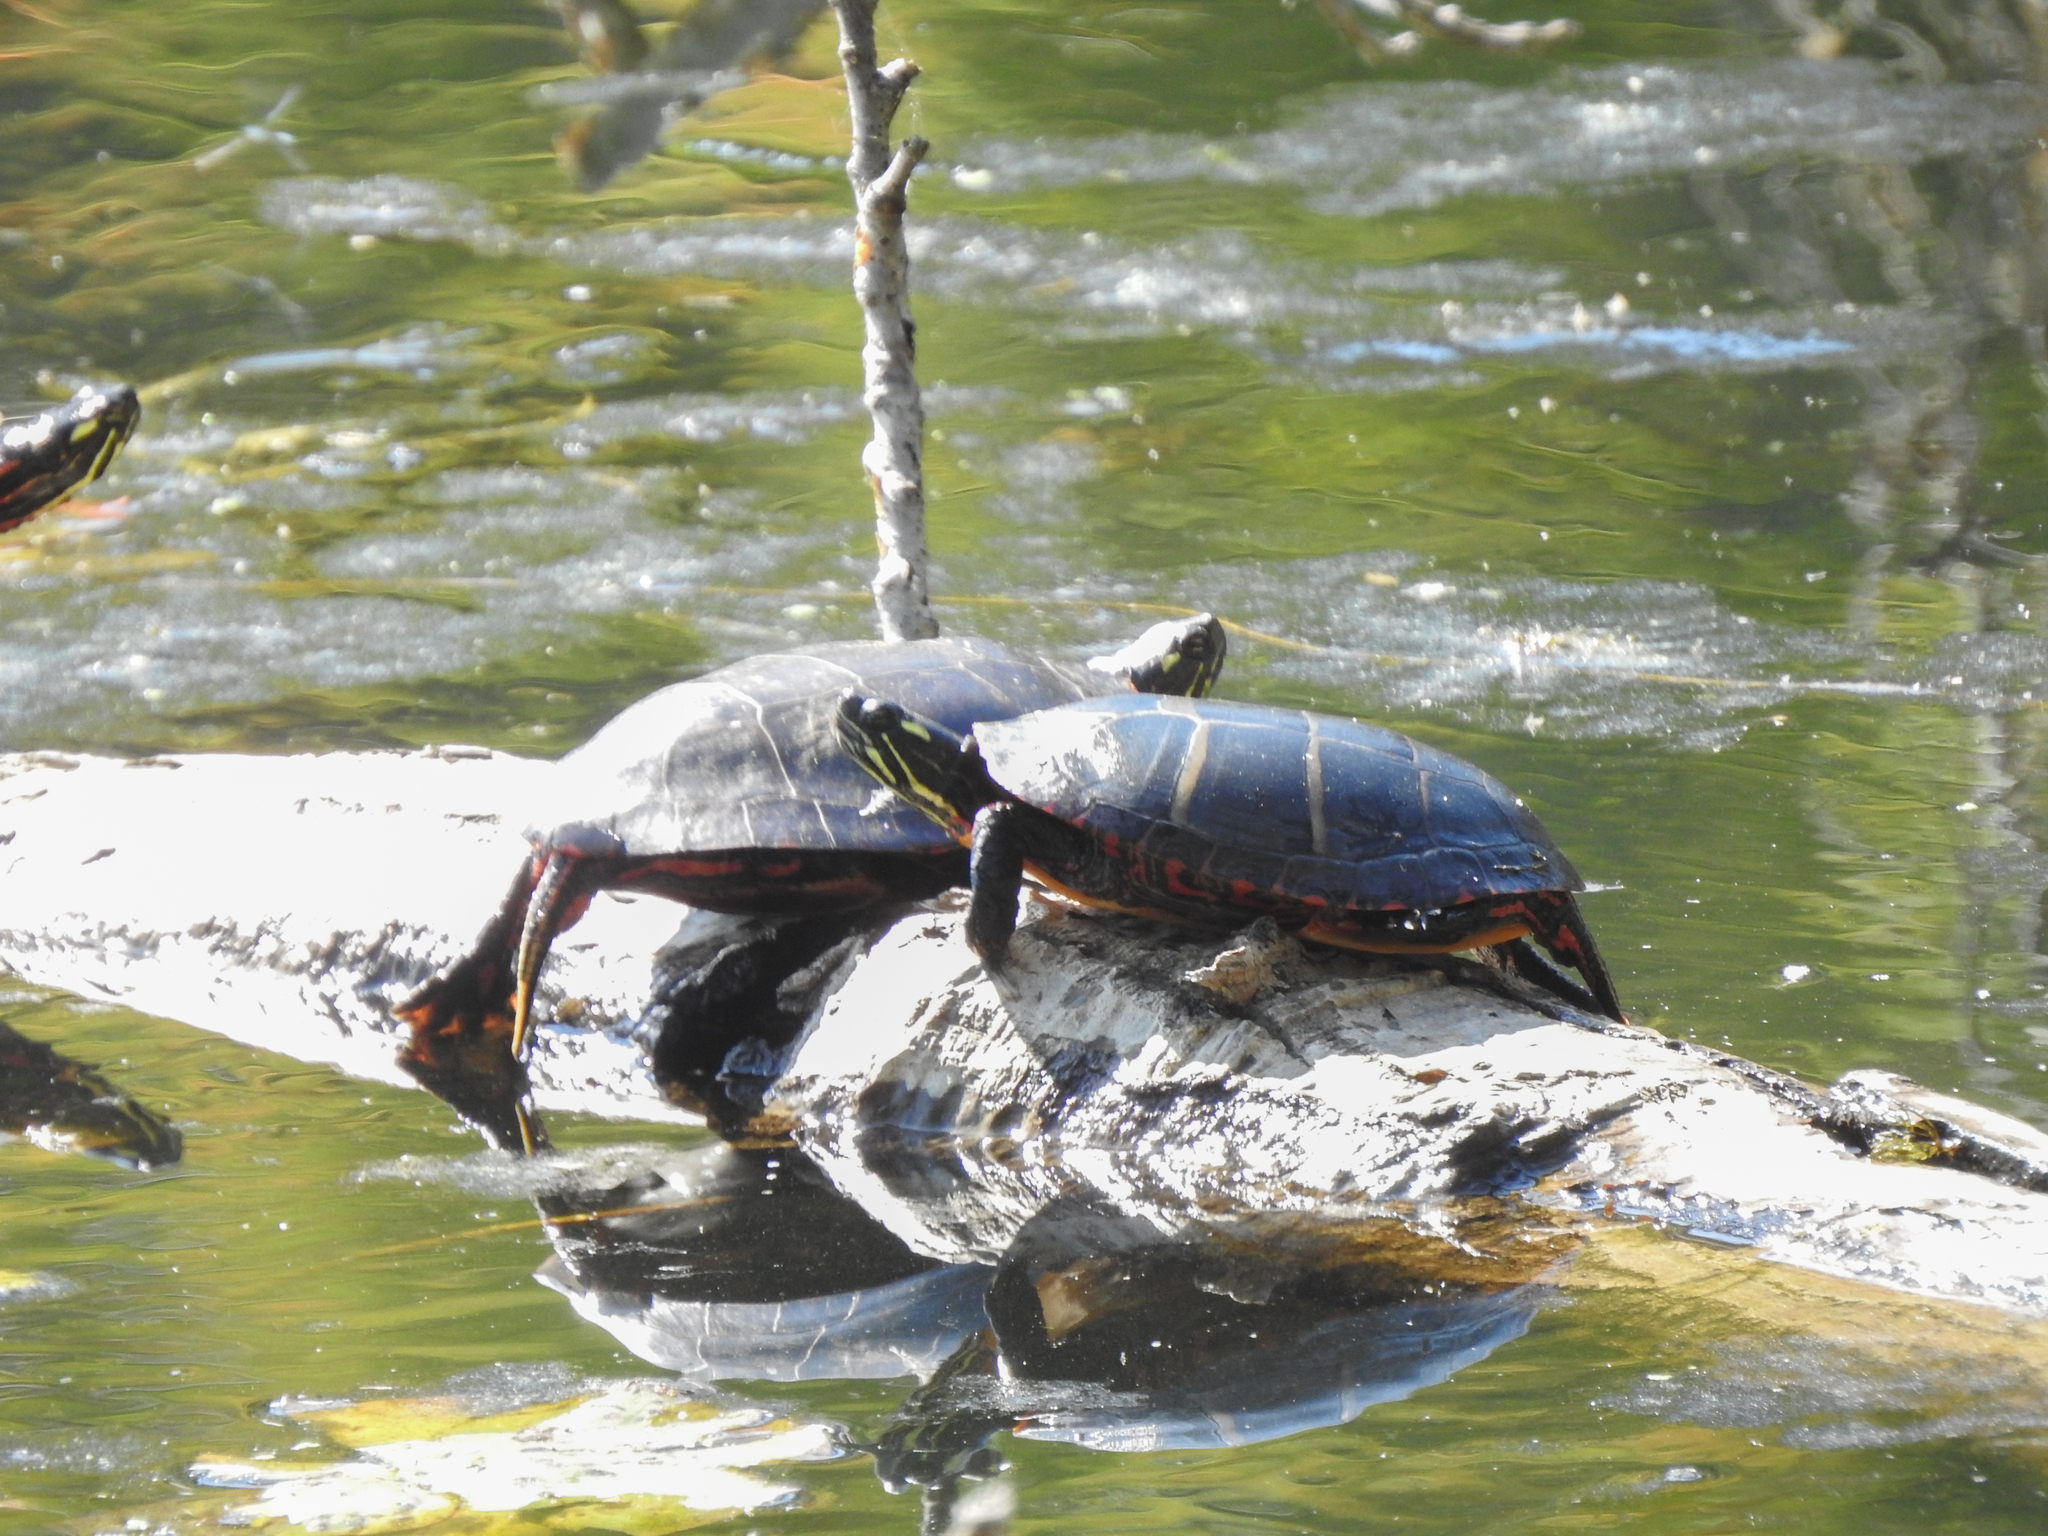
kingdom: Animalia
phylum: Chordata
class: Testudines
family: Emydidae
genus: Chrysemys
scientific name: Chrysemys picta
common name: Painted turtle
